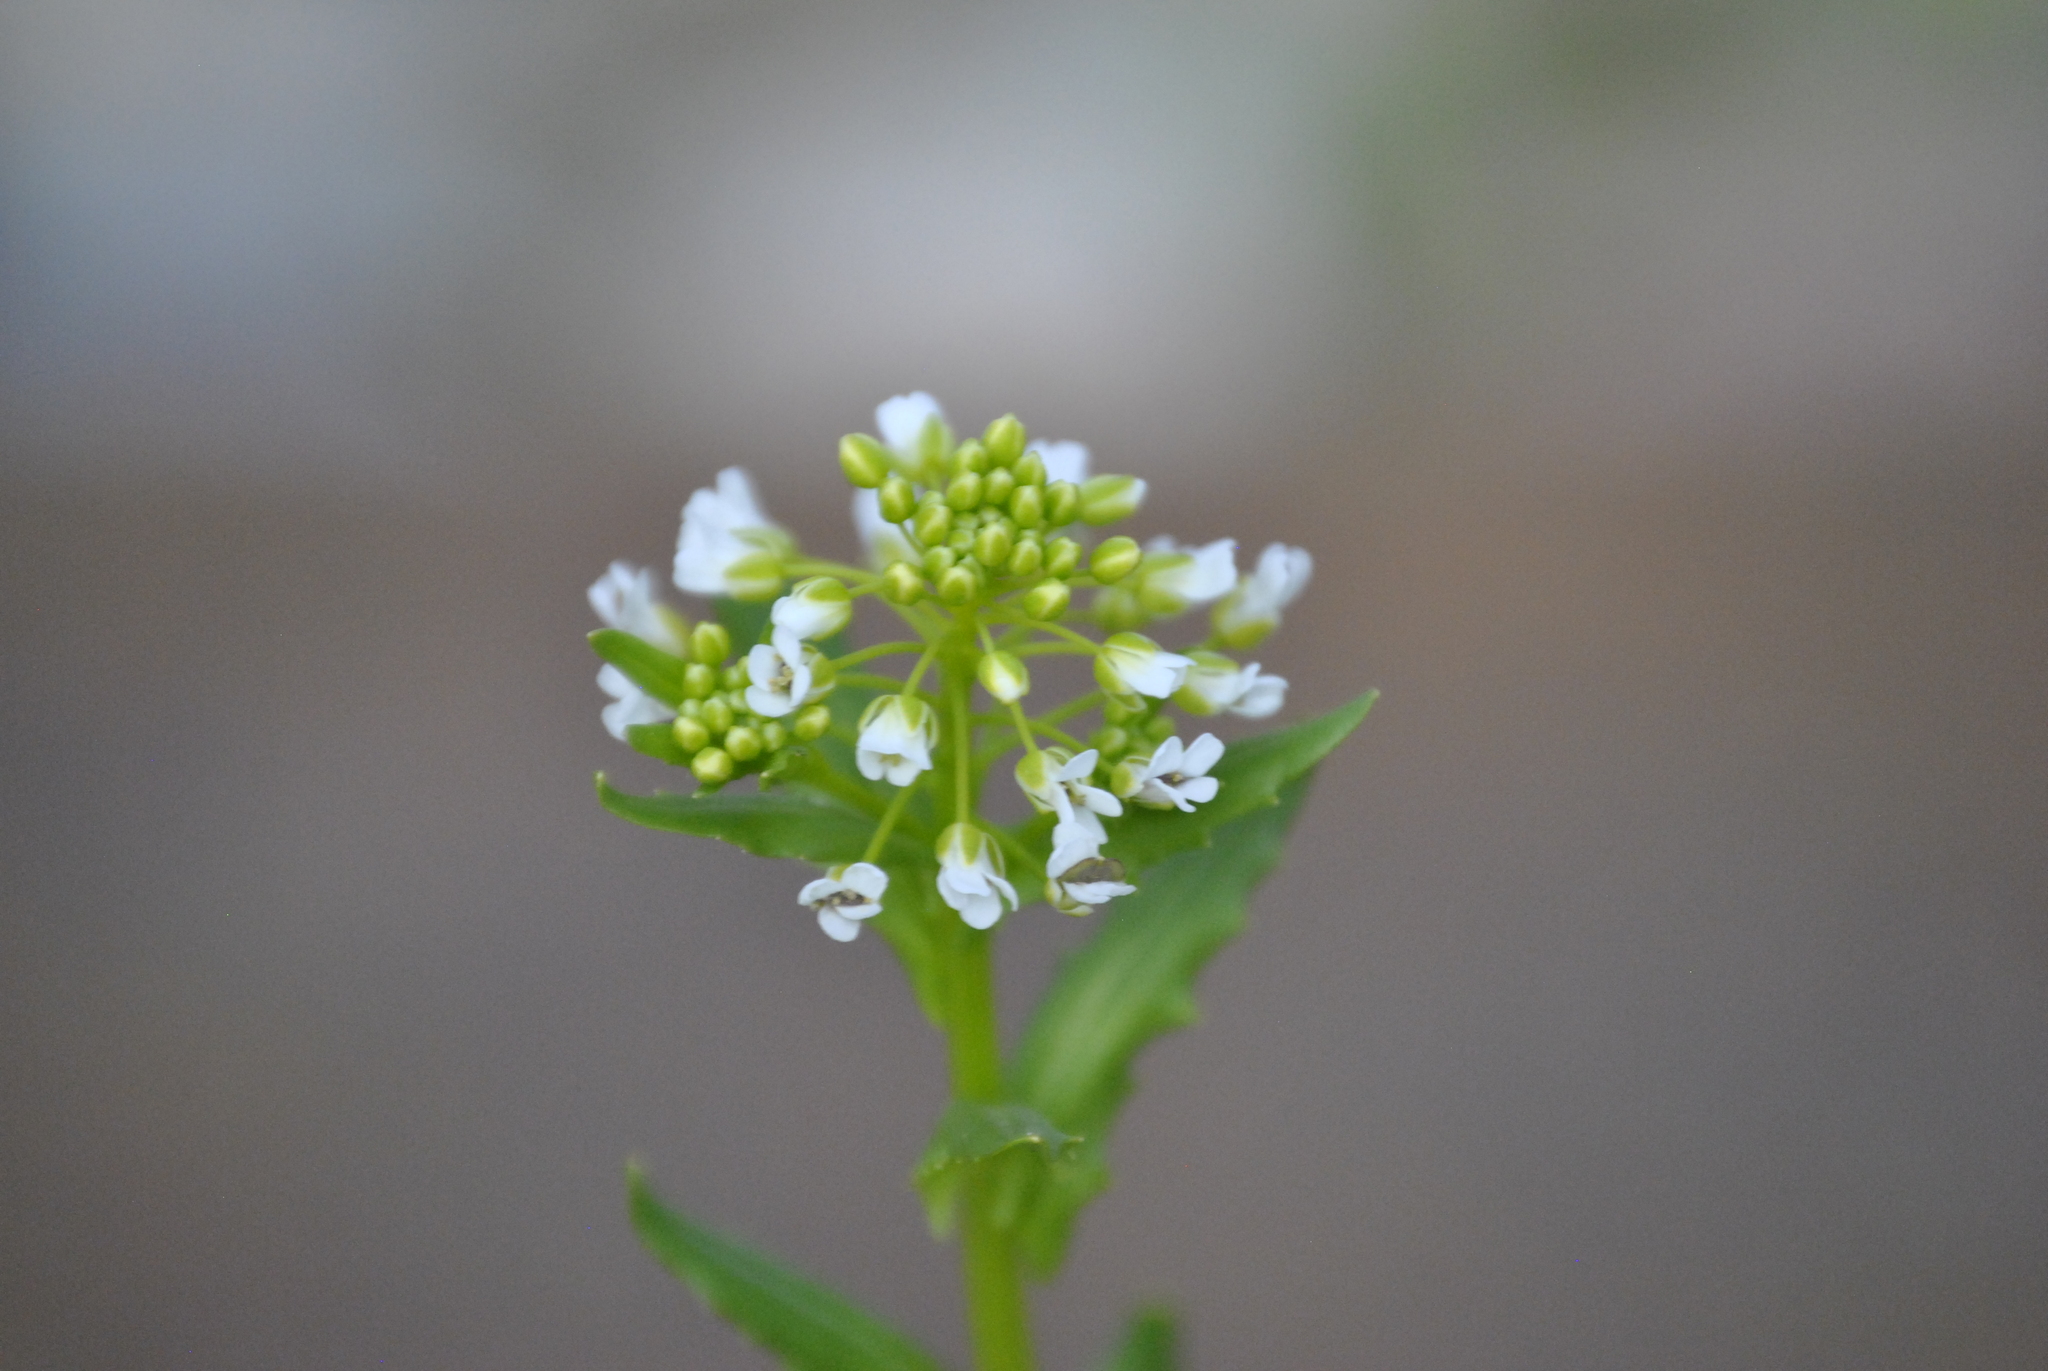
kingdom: Plantae
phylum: Tracheophyta
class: Magnoliopsida
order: Brassicales
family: Brassicaceae
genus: Thlaspi
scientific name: Thlaspi arvense
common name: Field pennycress
